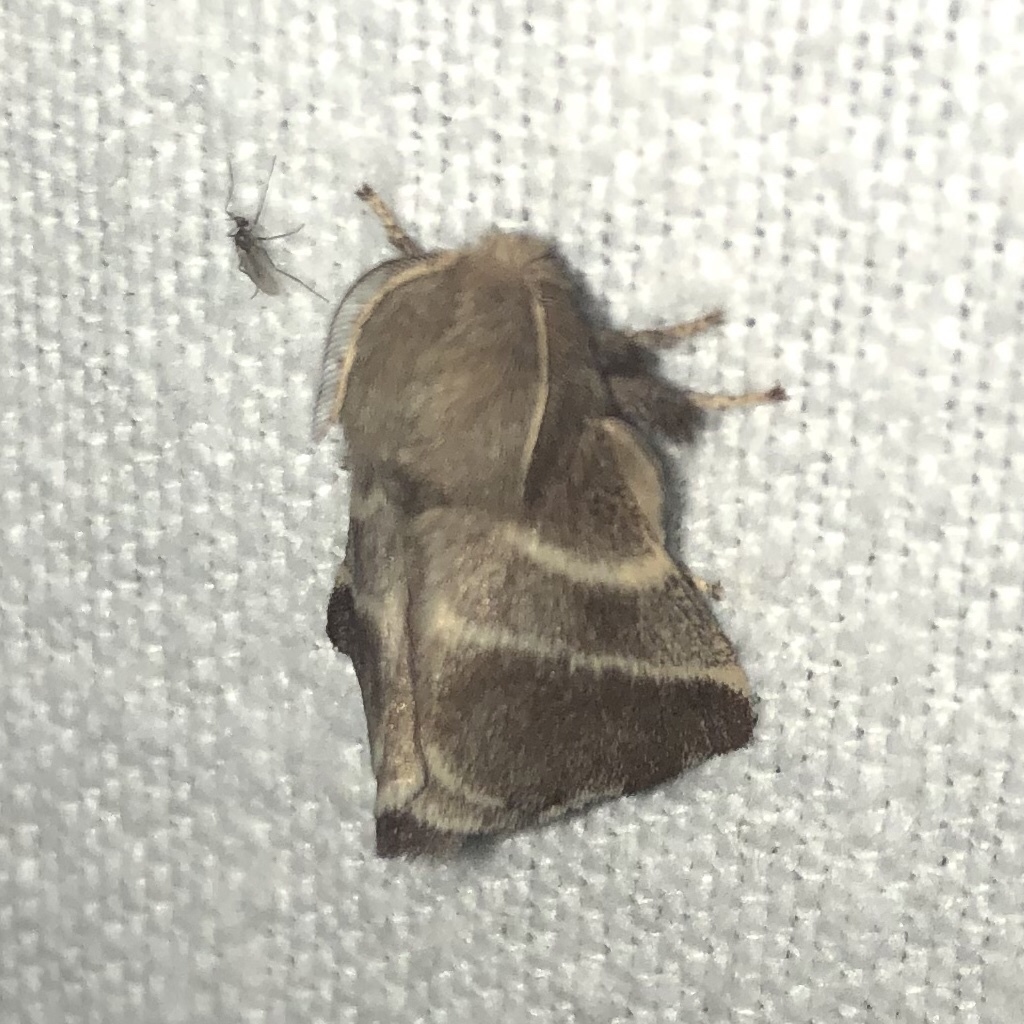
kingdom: Animalia
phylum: Arthropoda
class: Insecta
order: Lepidoptera
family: Lasiocampidae
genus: Malacosoma
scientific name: Malacosoma americana
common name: Eastern tent caterpillar moth
